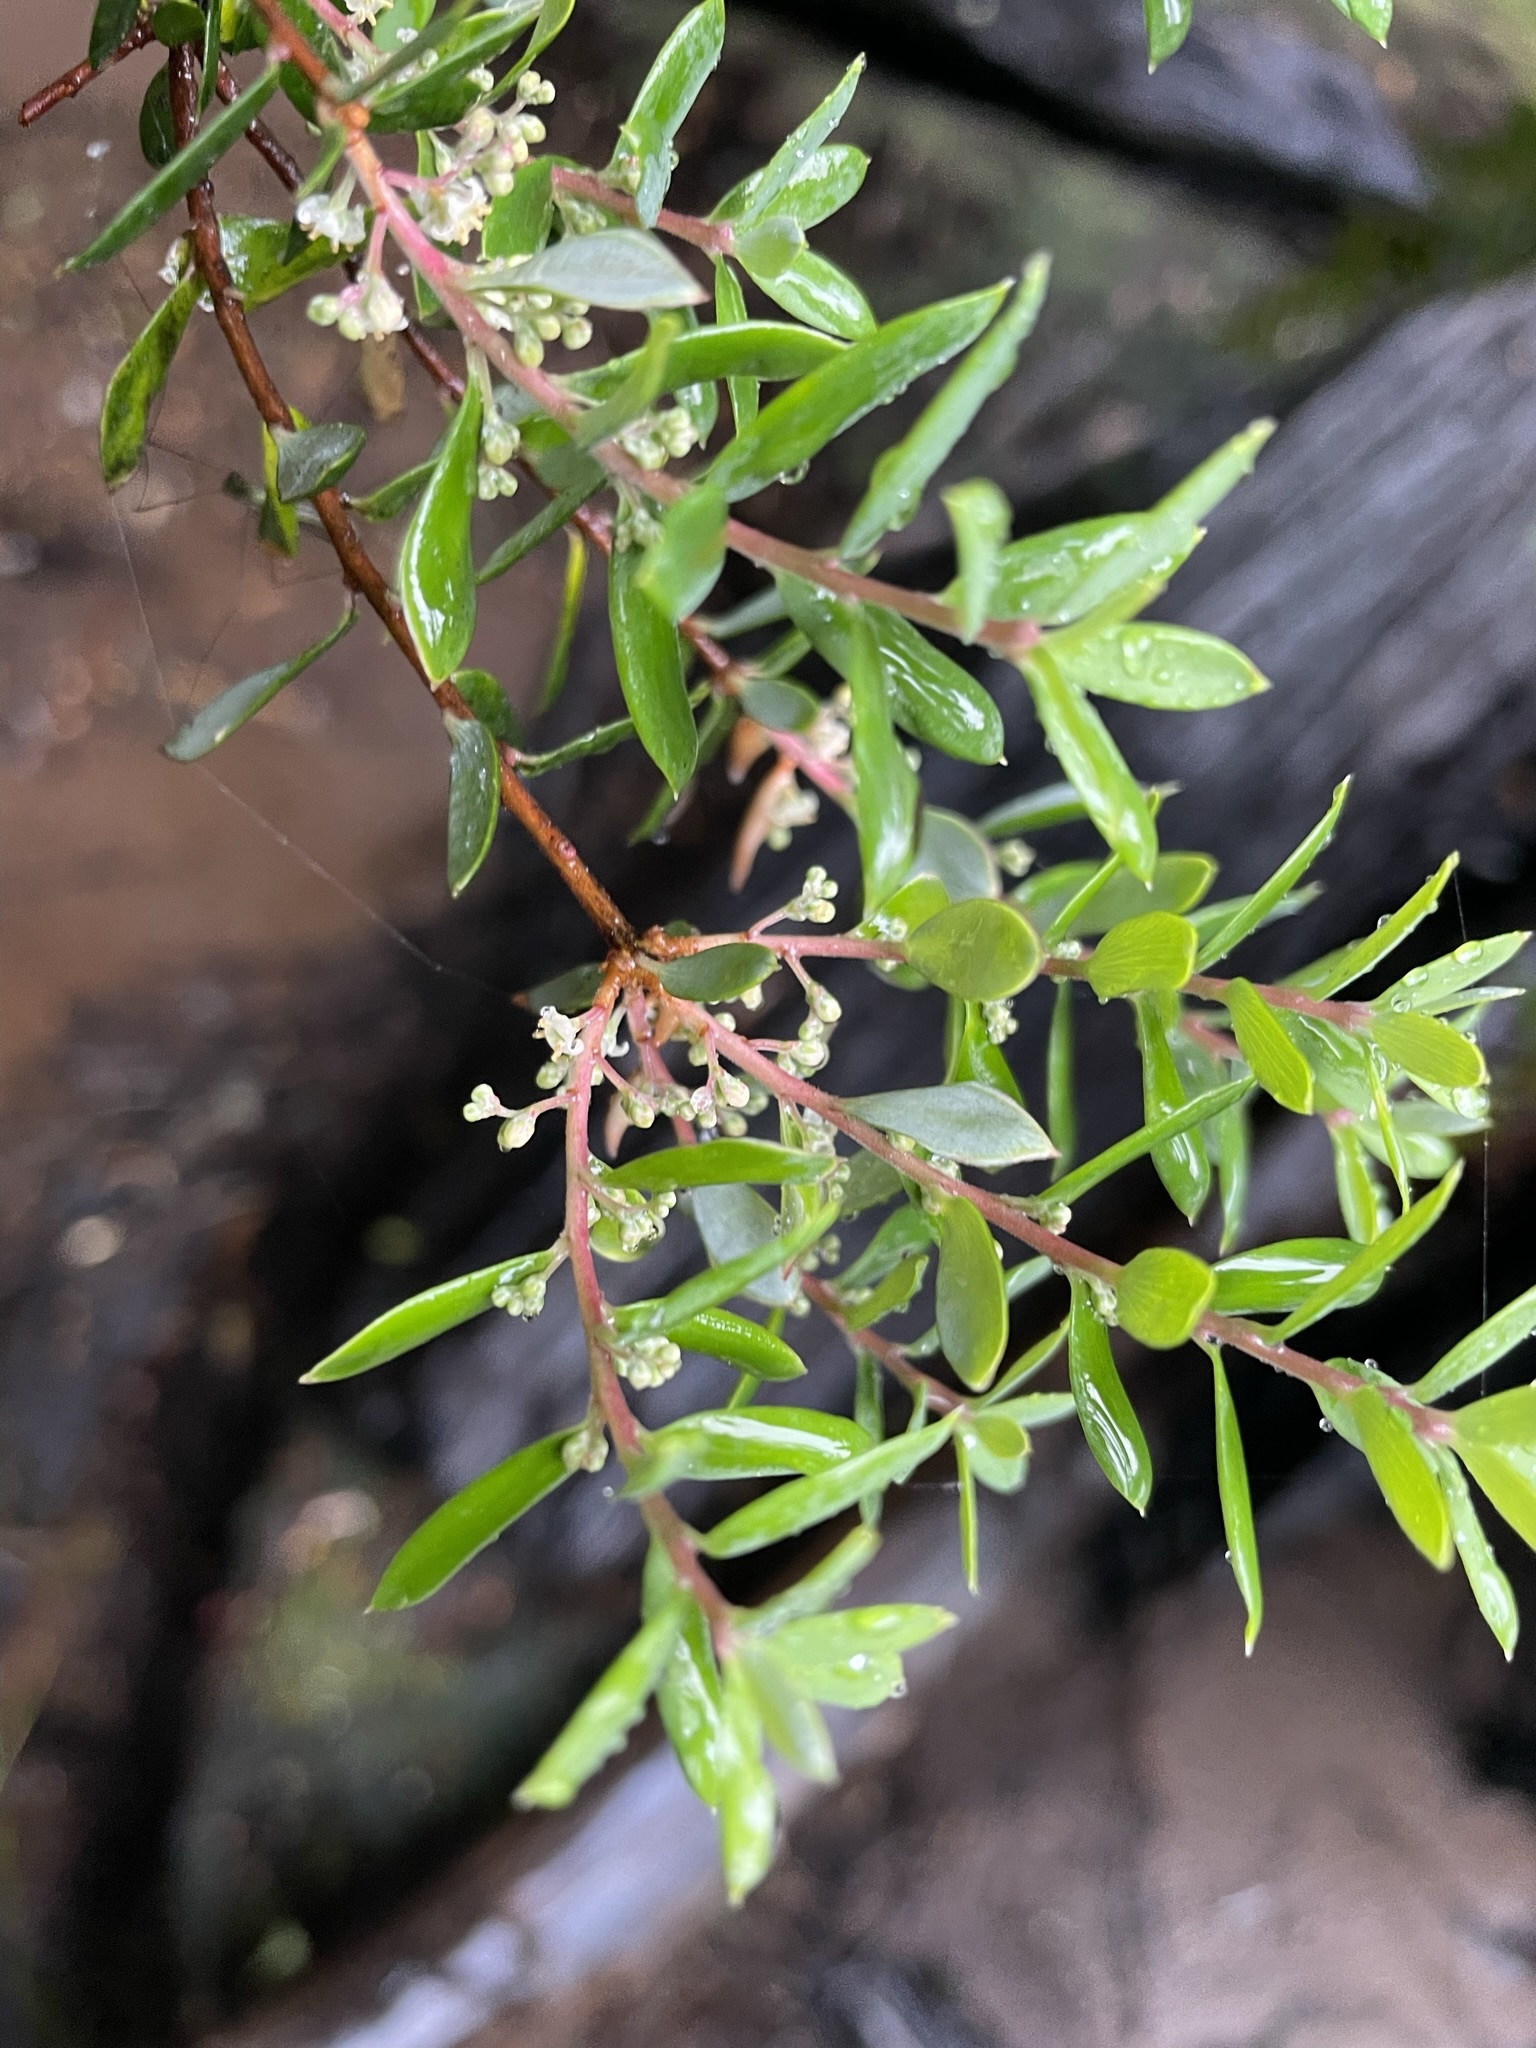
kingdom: Plantae
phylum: Tracheophyta
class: Magnoliopsida
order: Ericales
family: Ericaceae
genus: Monotoca
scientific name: Monotoca glauca
